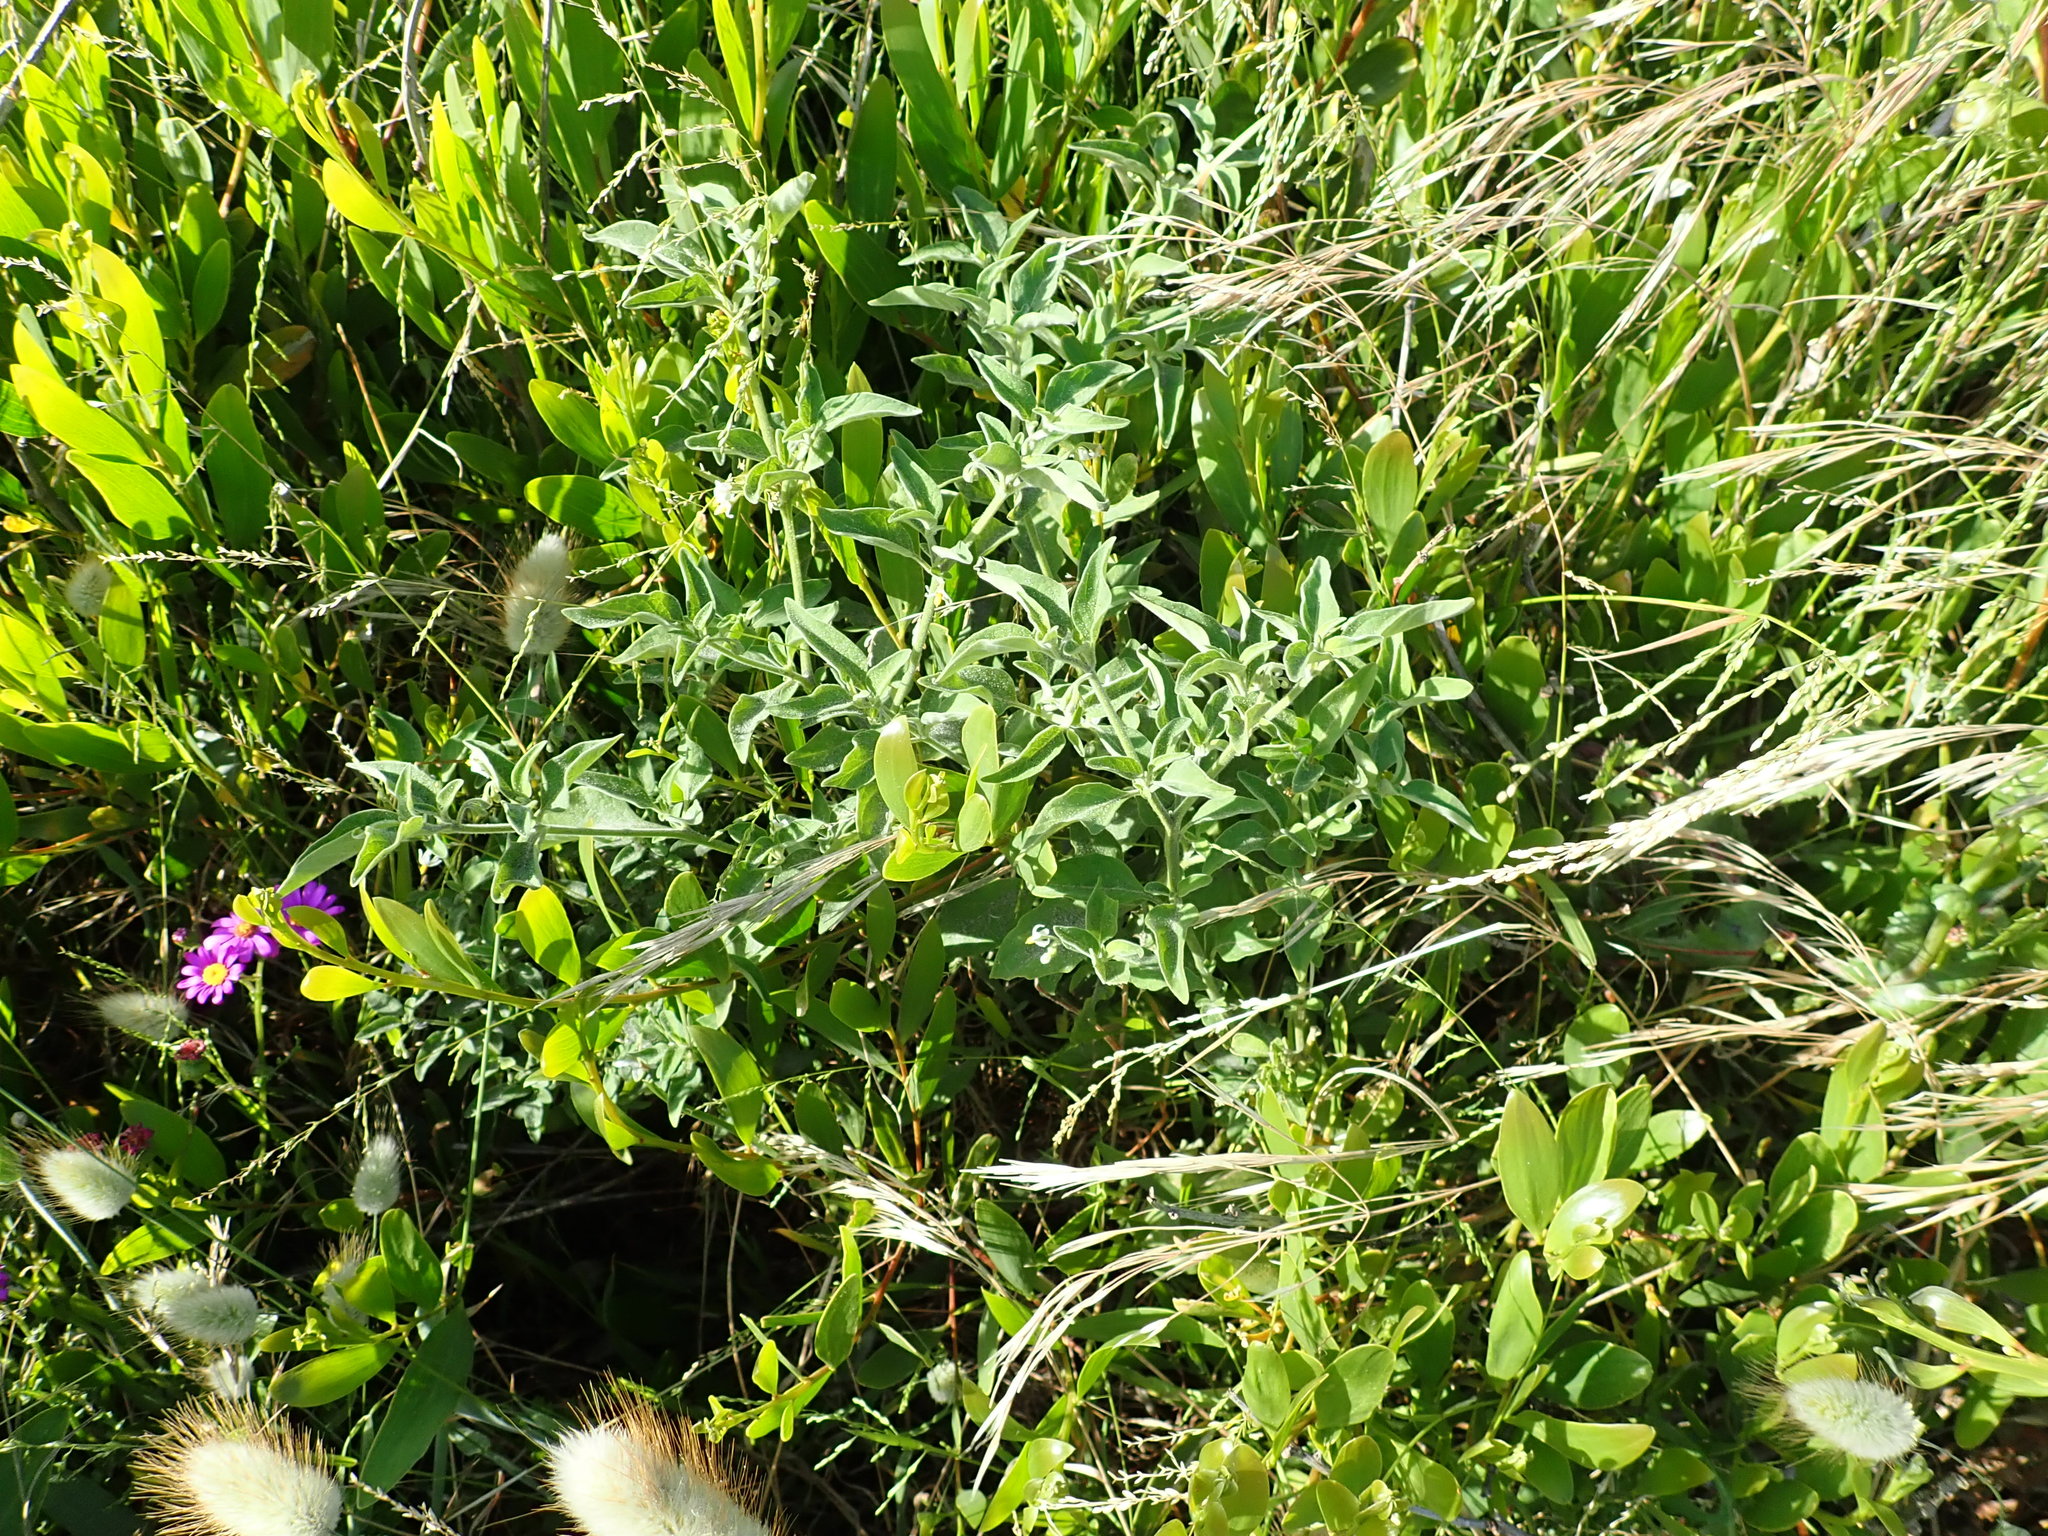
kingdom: Plantae
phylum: Tracheophyta
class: Magnoliopsida
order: Solanales
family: Solanaceae
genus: Solanum
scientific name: Solanum chenopodioides
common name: Tall nightshade
